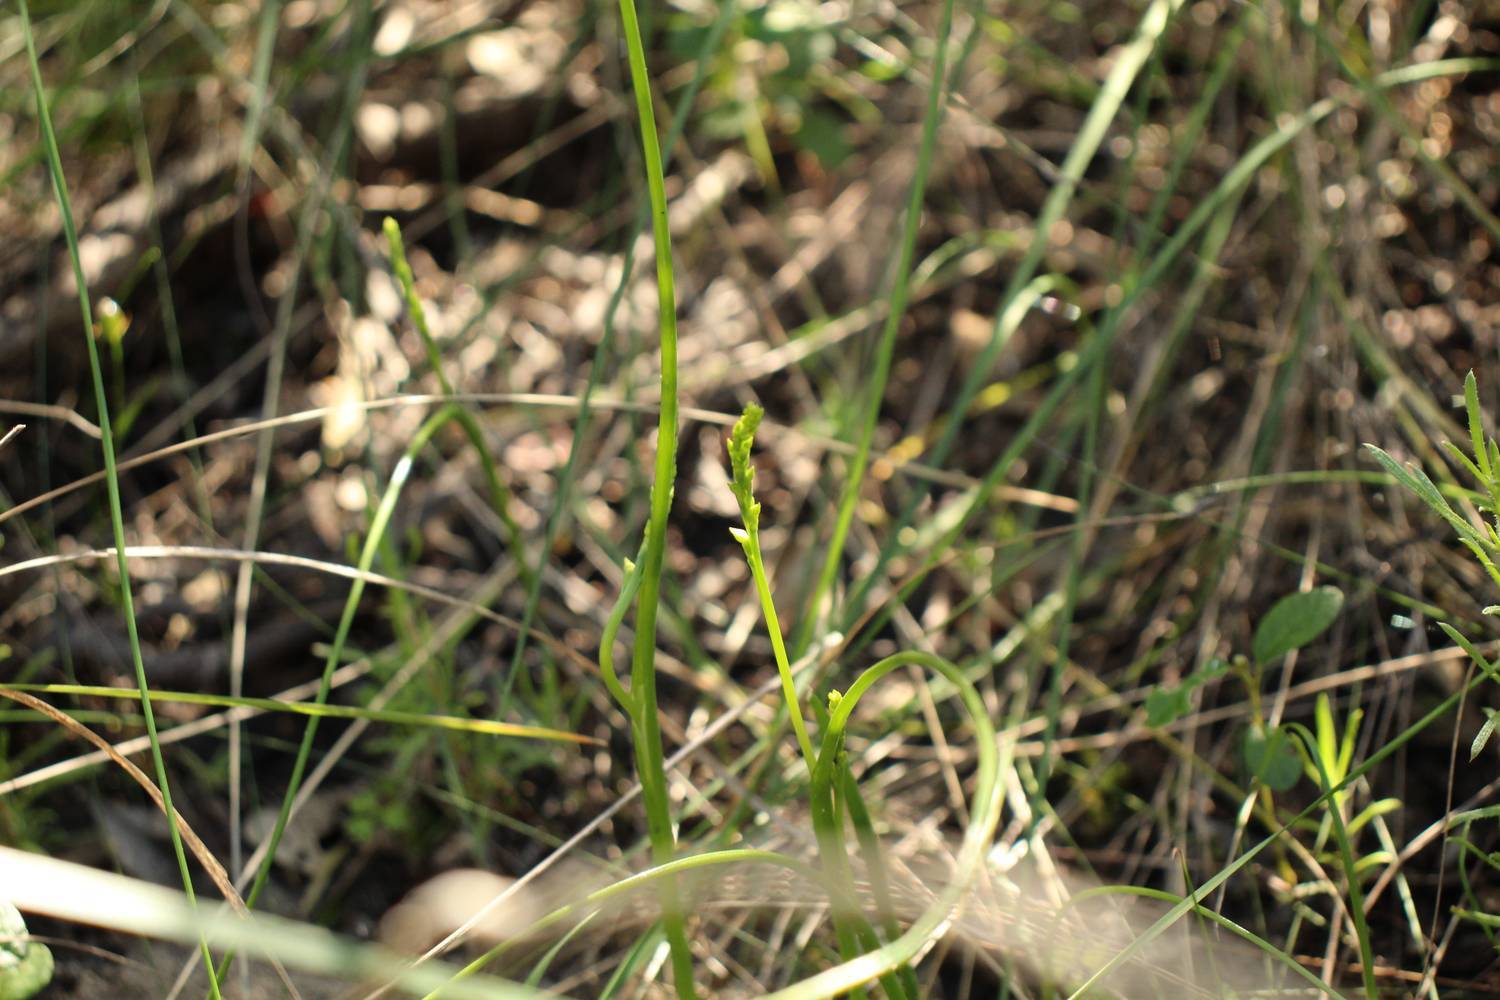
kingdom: Plantae
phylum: Tracheophyta
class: Liliopsida
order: Asparagales
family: Orchidaceae
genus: Prasophyllum
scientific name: Prasophyllum calcicola
